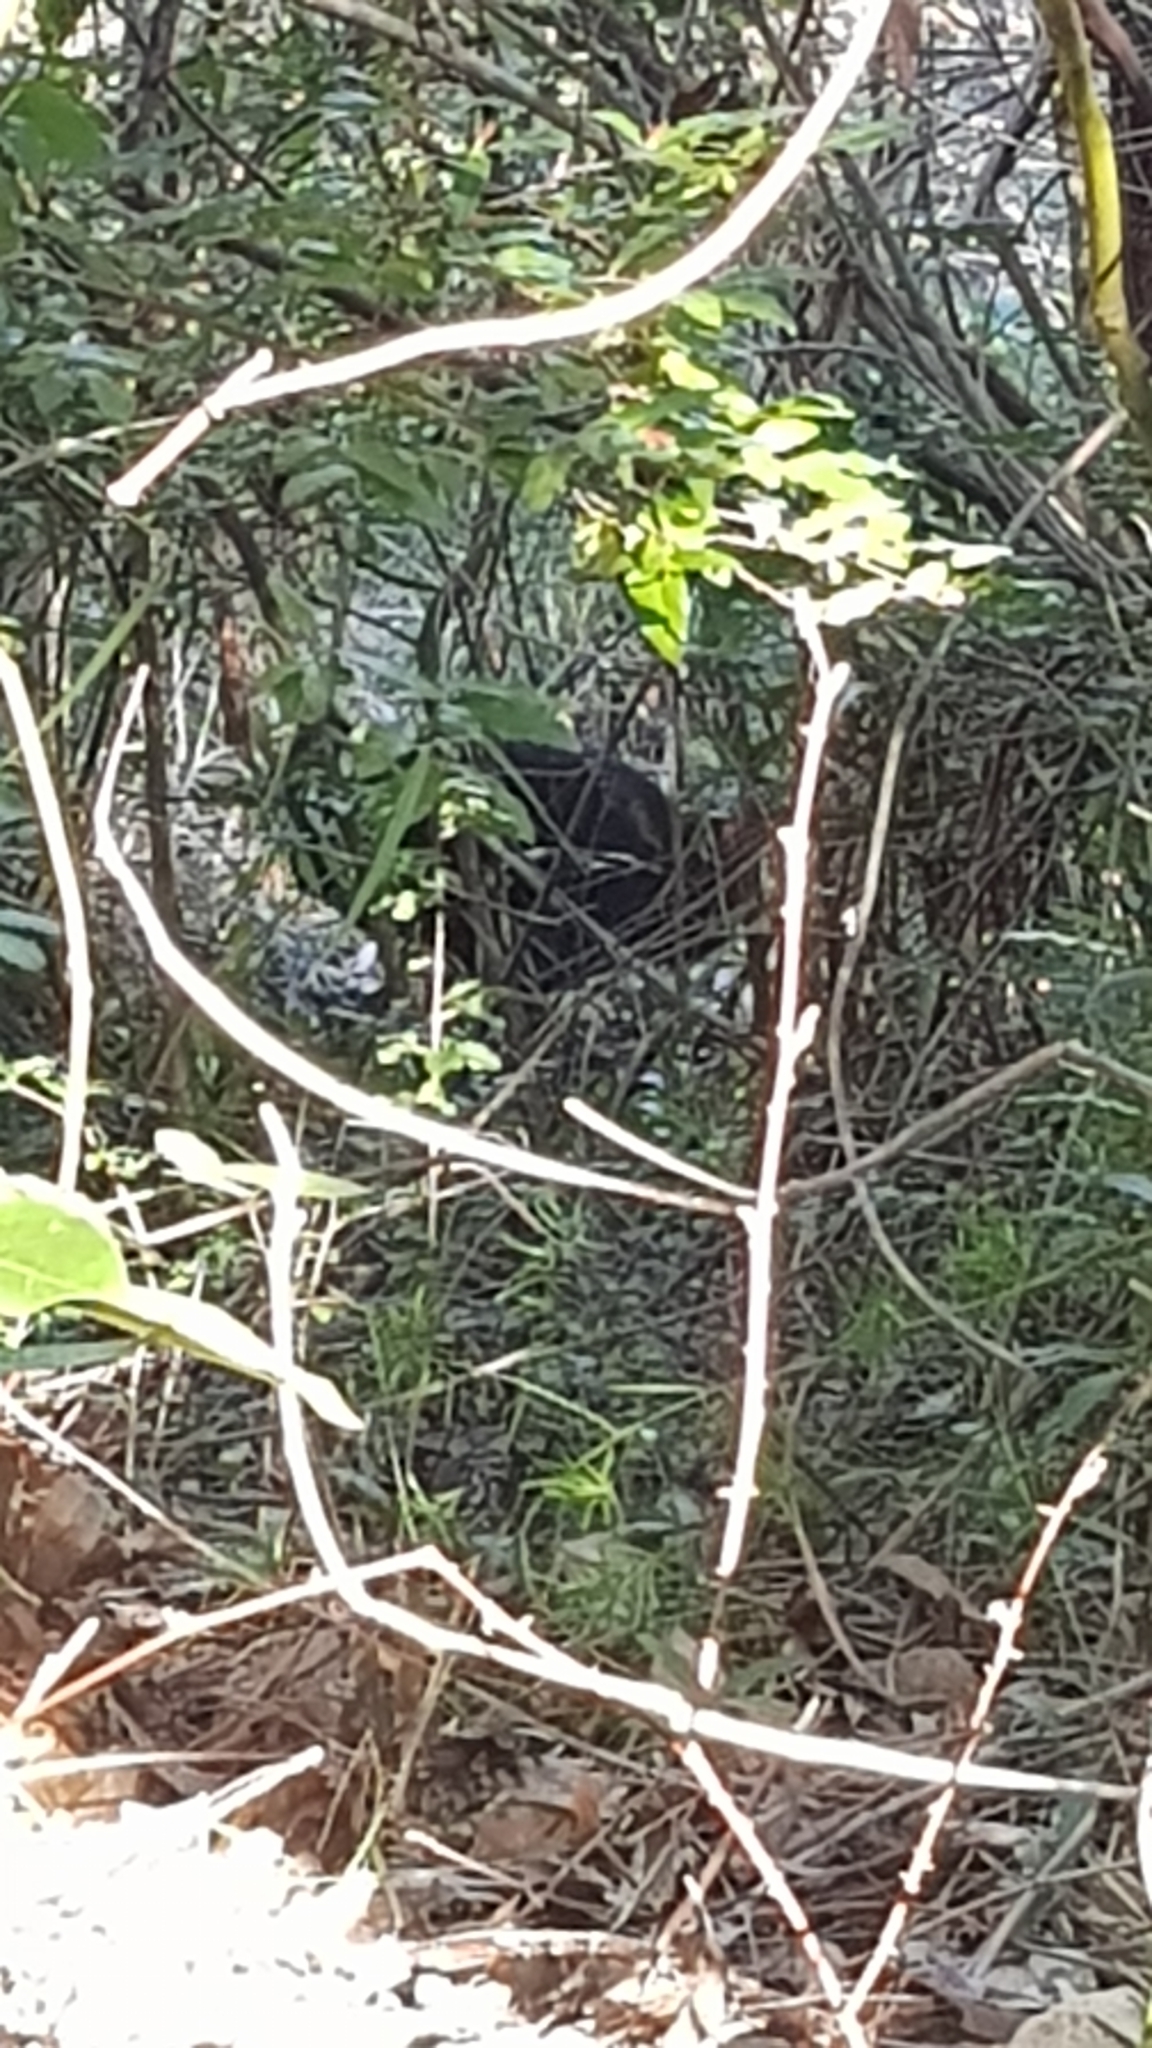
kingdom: Animalia
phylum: Chordata
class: Aves
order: Galliformes
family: Megapodiidae
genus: Alectura
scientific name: Alectura lathami
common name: Australian brushturkey
